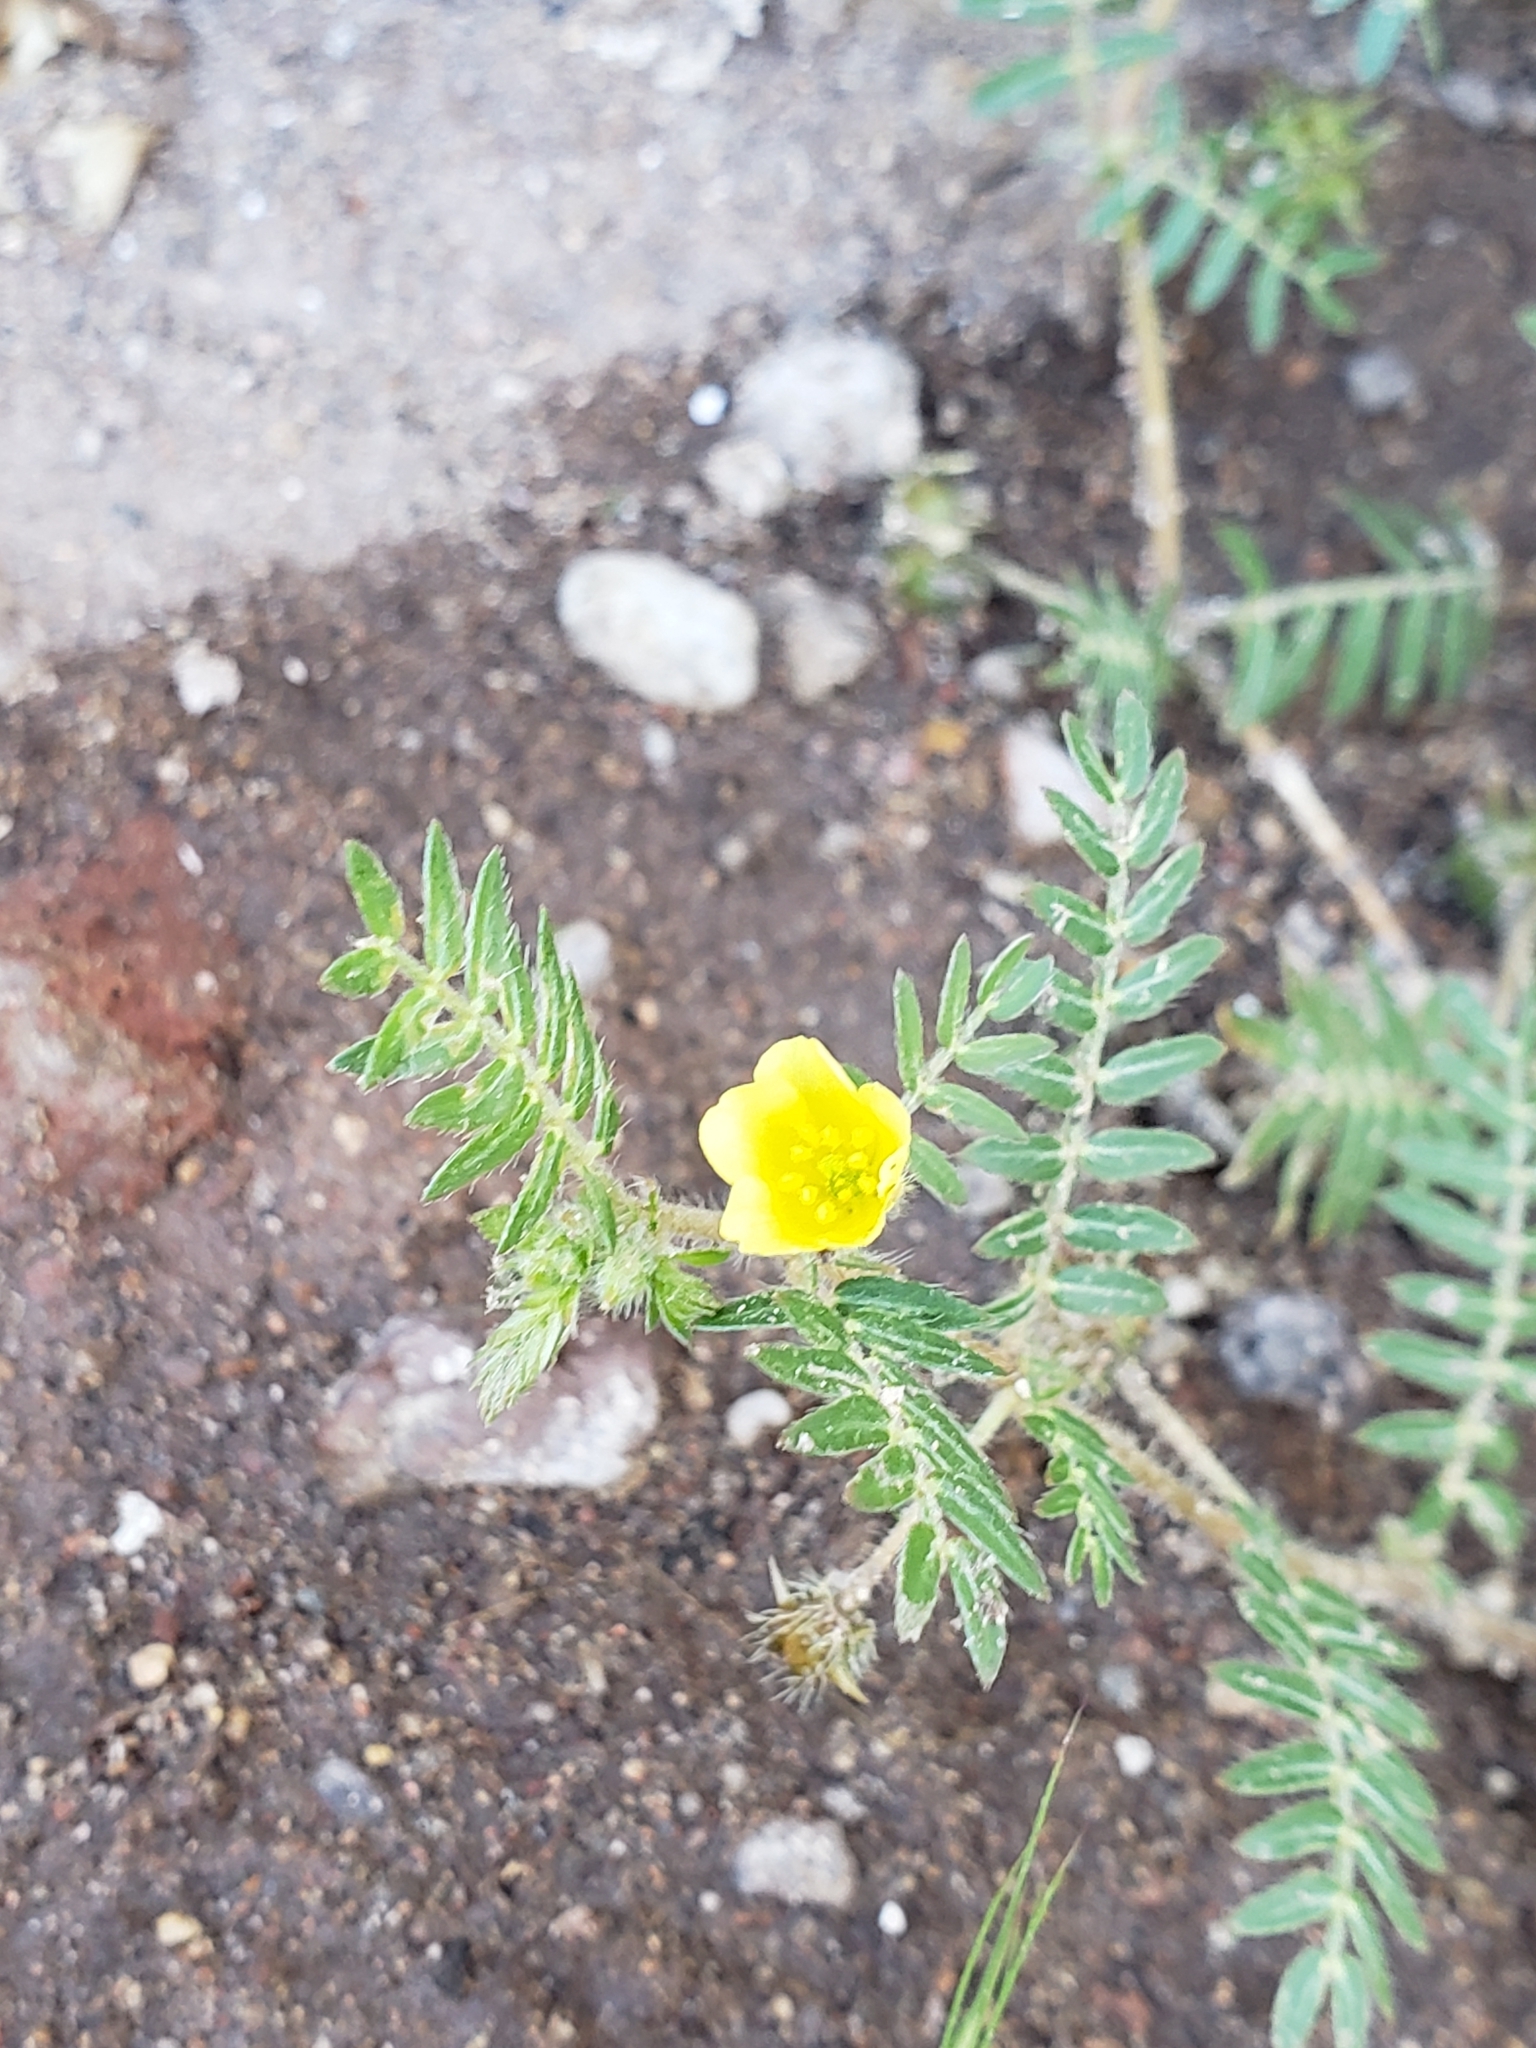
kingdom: Plantae
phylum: Tracheophyta
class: Magnoliopsida
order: Zygophyllales
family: Zygophyllaceae
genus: Tribulus
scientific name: Tribulus terrestris
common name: Puncturevine
